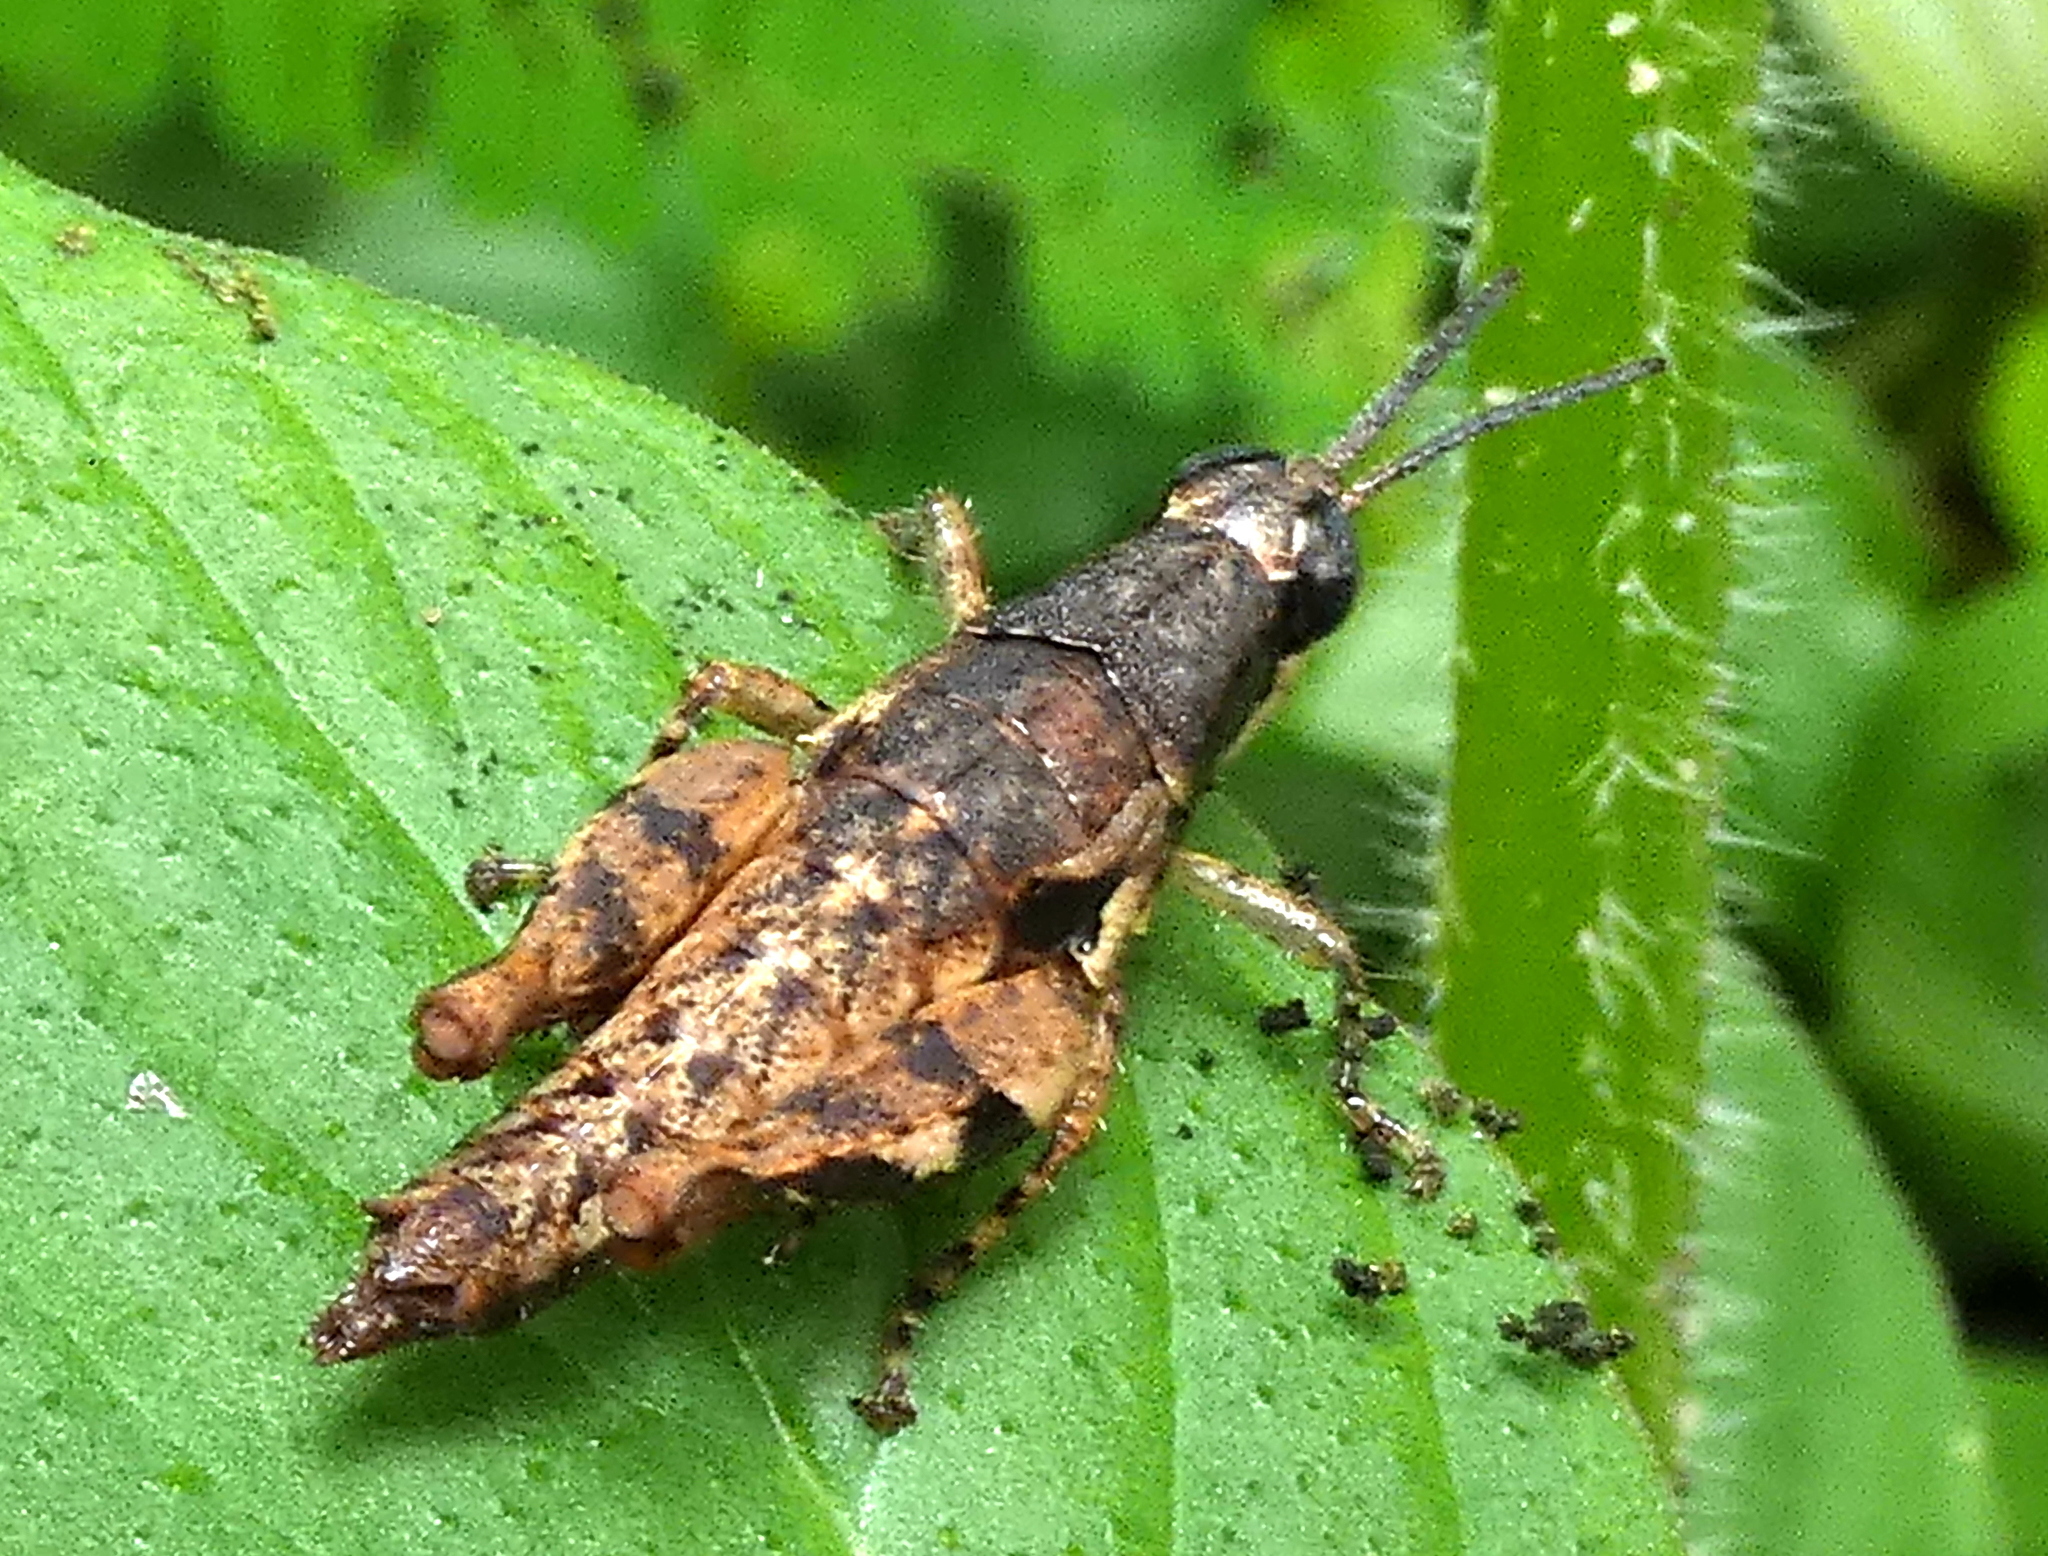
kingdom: Animalia
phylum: Arthropoda
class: Insecta
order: Orthoptera
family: Acrididae
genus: Eujivarus
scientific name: Eujivarus meridionalis
